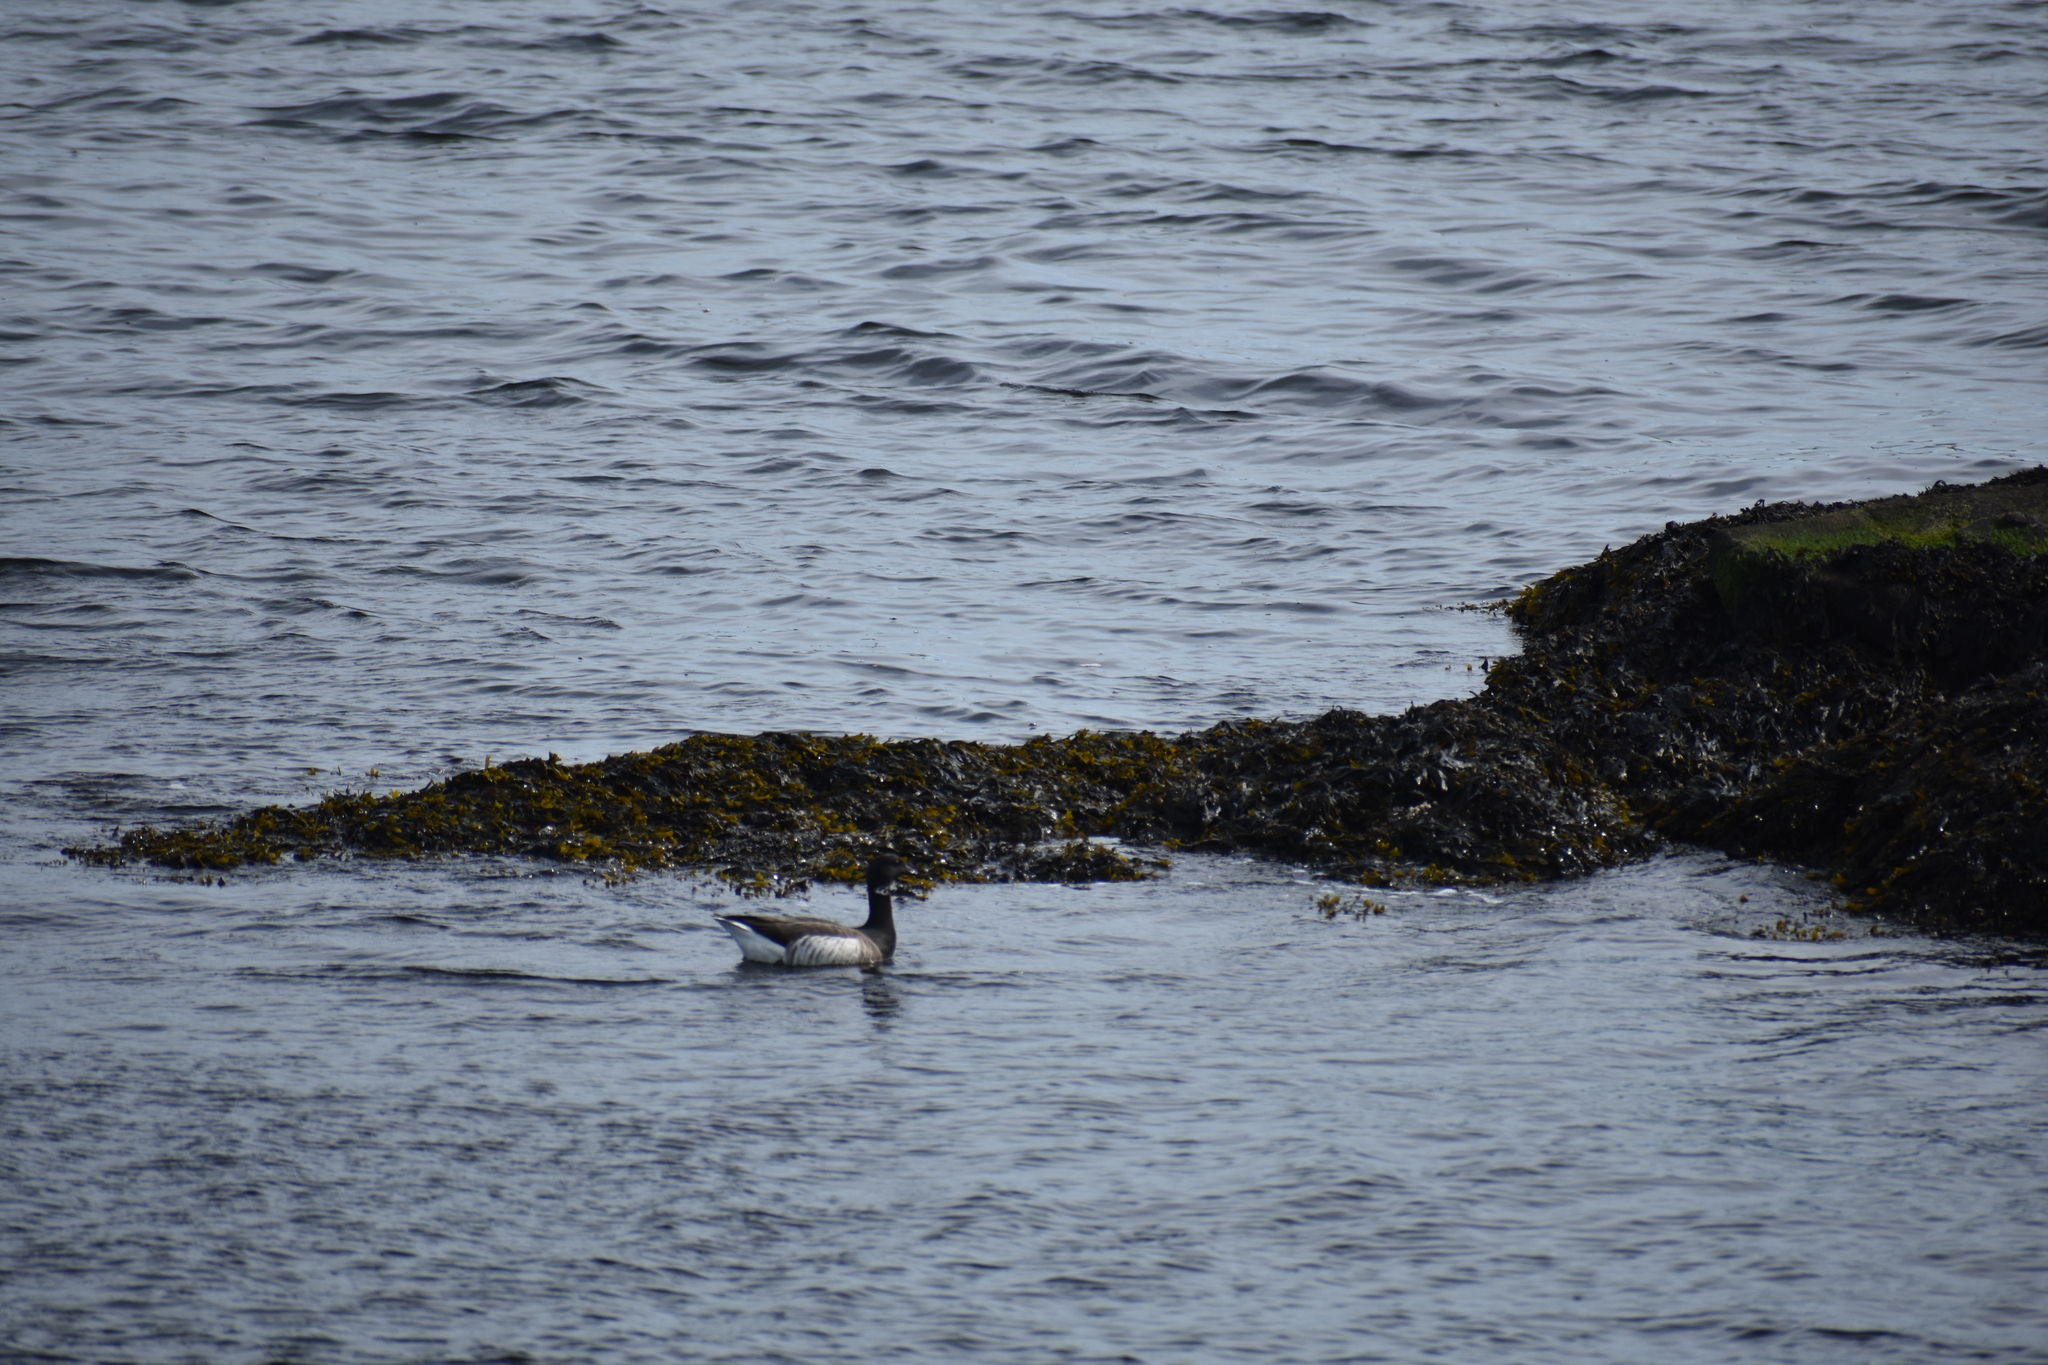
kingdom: Animalia
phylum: Chordata
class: Aves
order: Anseriformes
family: Anatidae
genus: Branta
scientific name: Branta bernicla
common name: Brant goose
